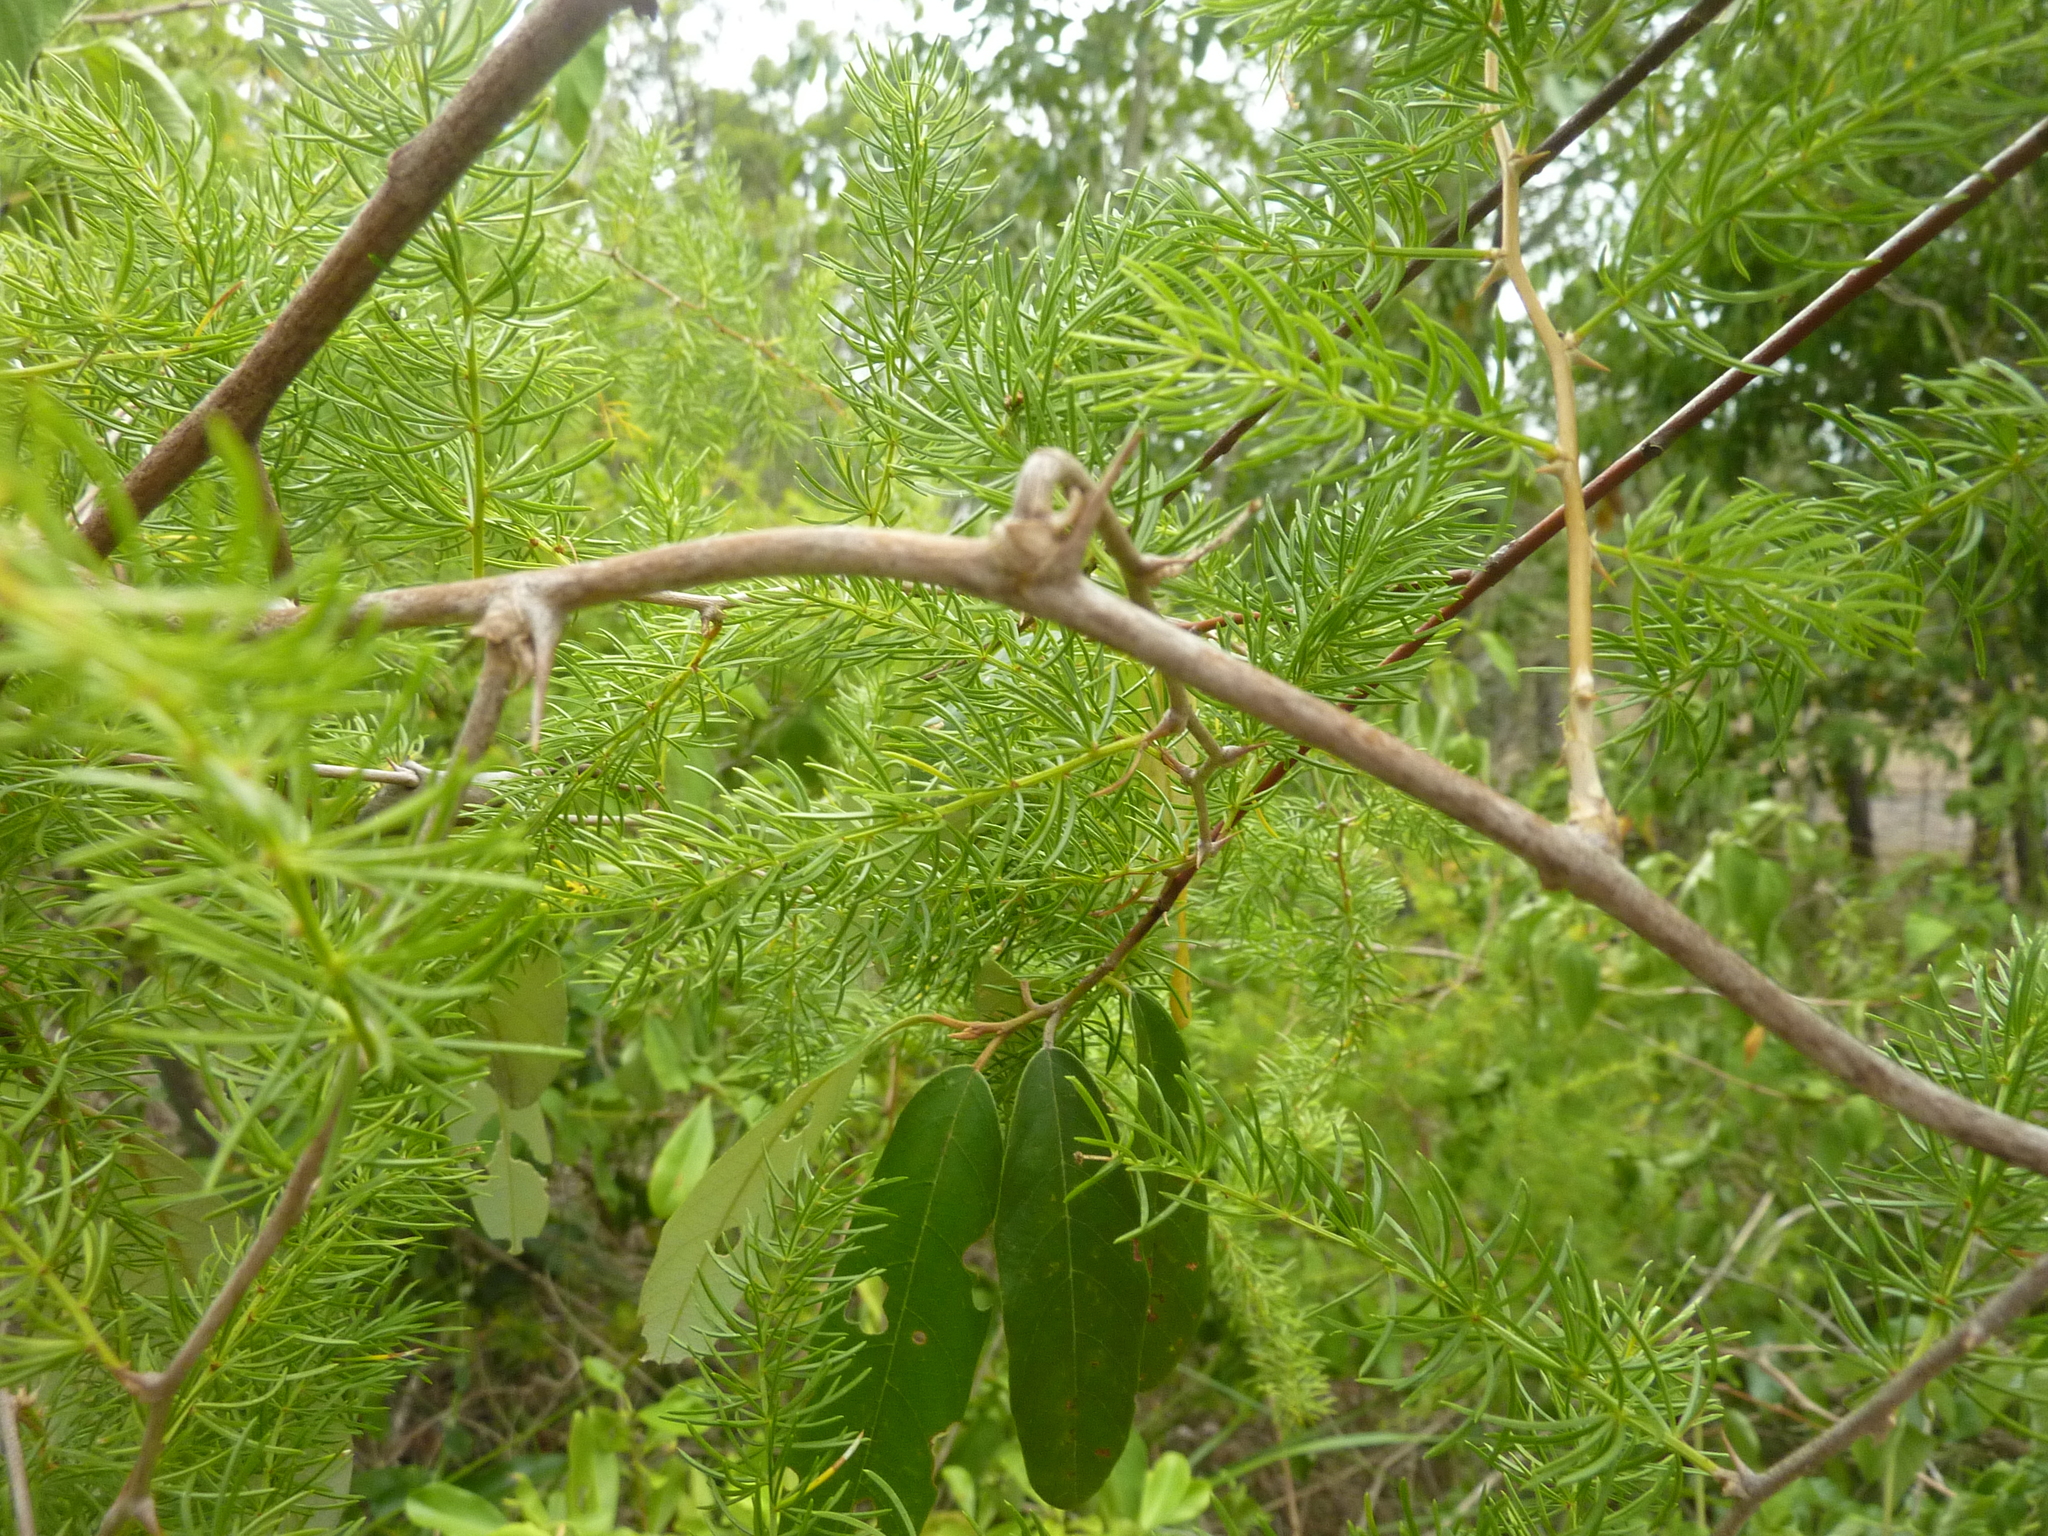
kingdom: Plantae
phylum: Tracheophyta
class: Liliopsida
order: Asparagales
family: Asparagaceae
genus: Asparagus
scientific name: Asparagus africanus
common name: Asparagus-fern
